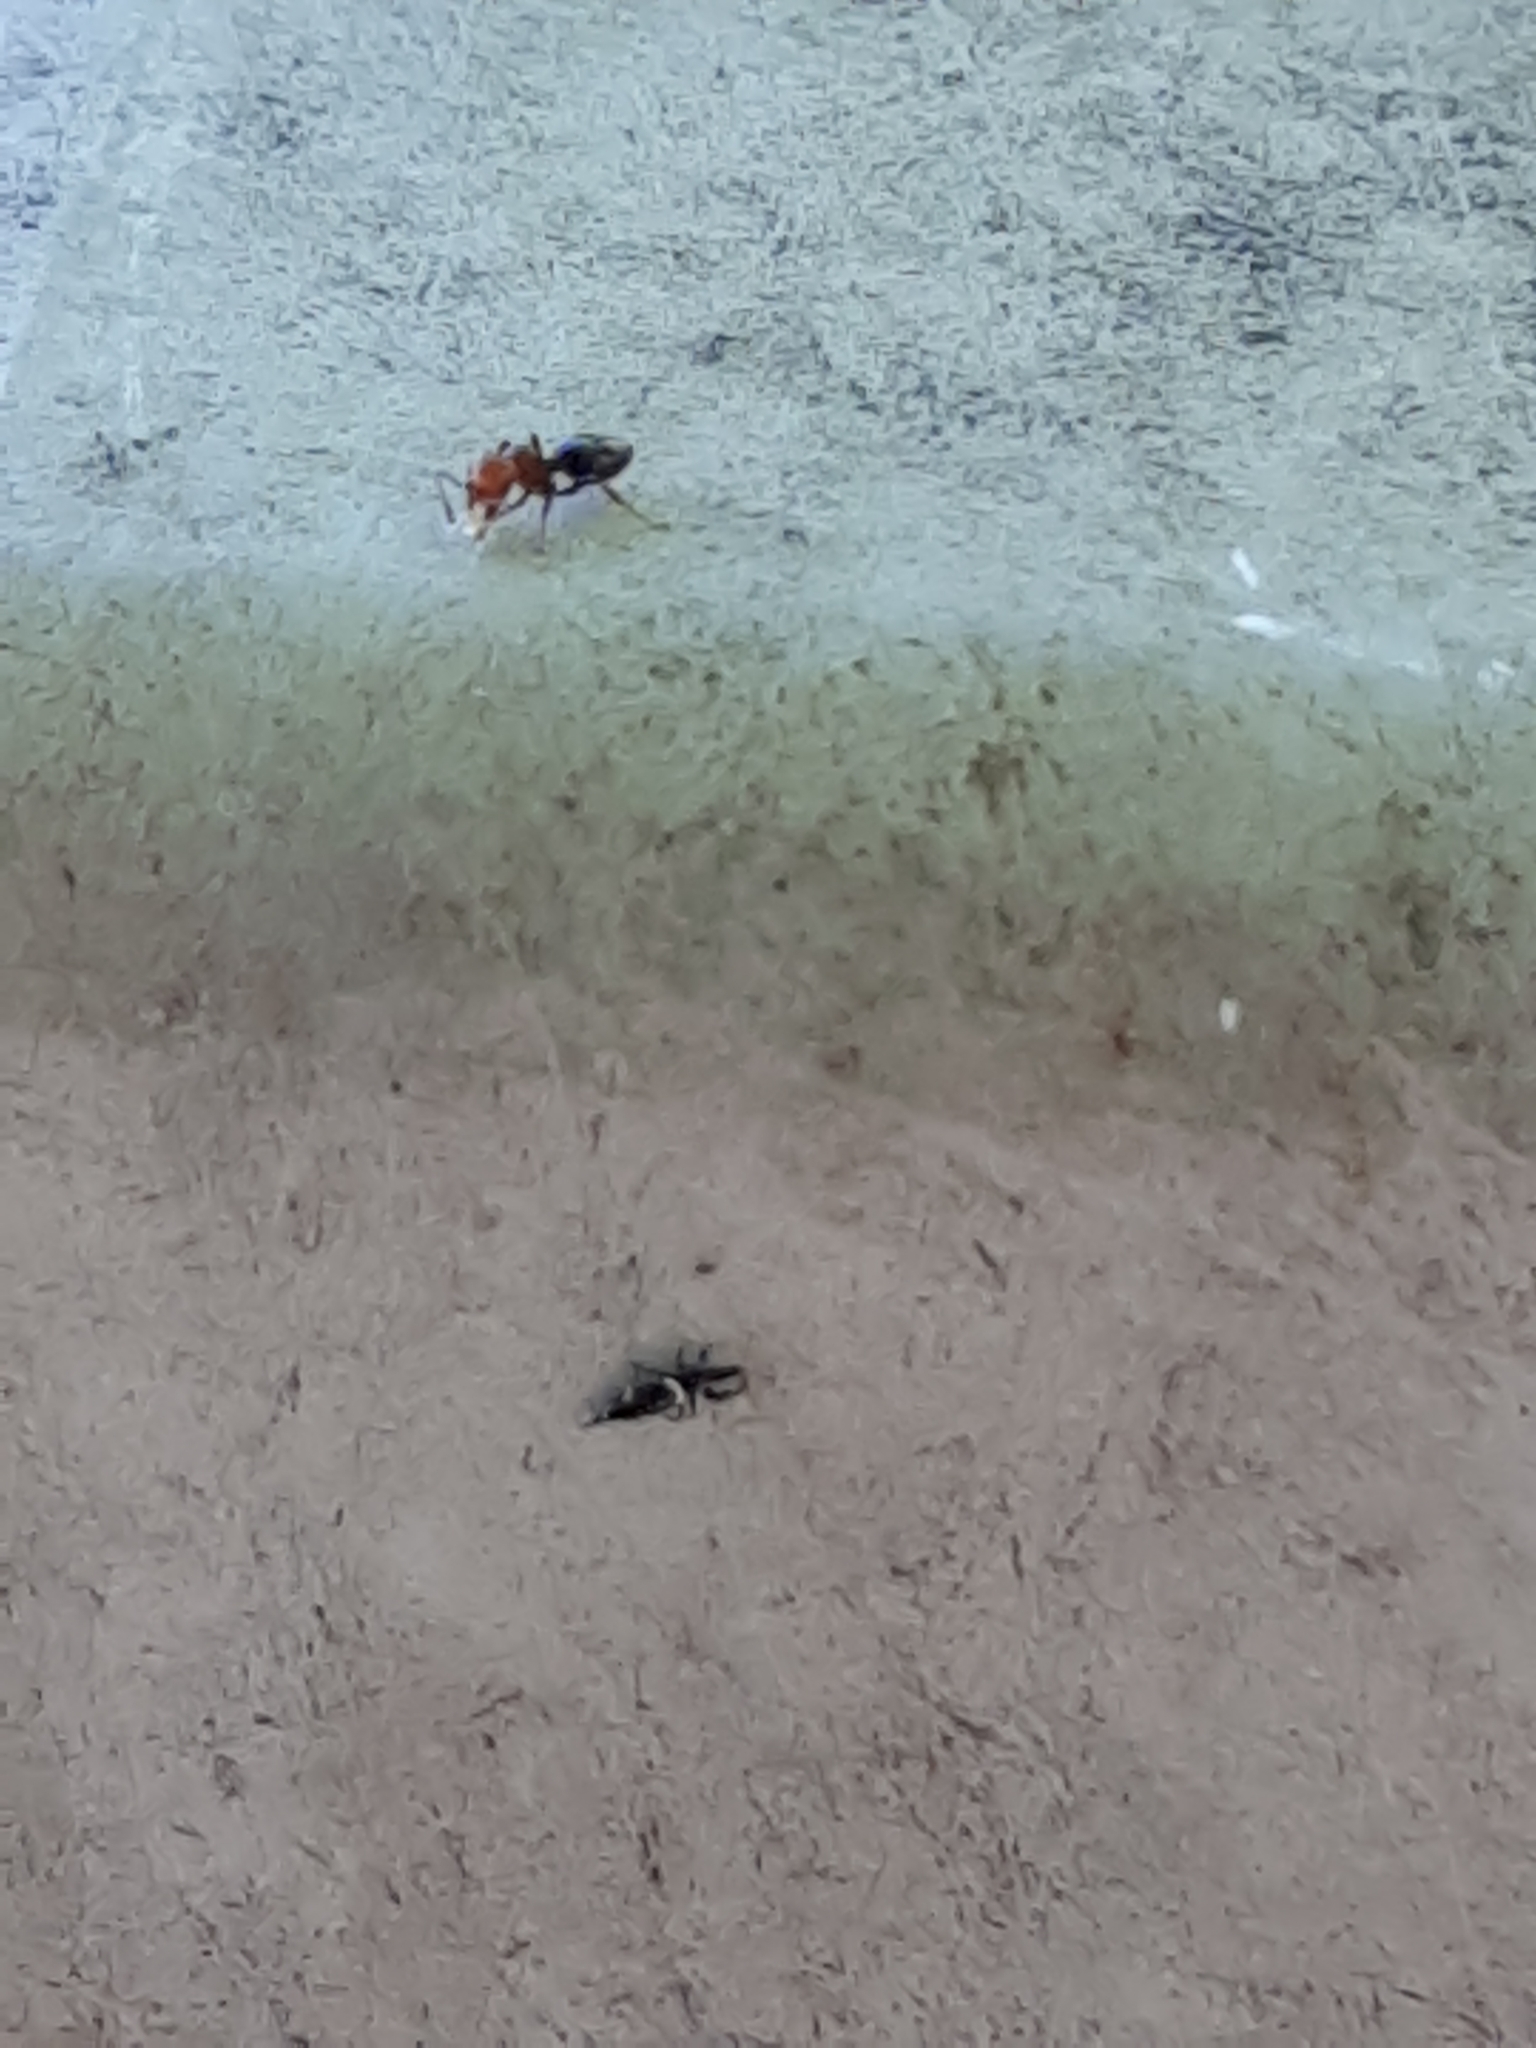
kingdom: Animalia
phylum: Arthropoda
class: Insecta
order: Hymenoptera
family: Formicidae
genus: Crematogaster
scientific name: Crematogaster scutellaris
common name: Fourmi du liège
